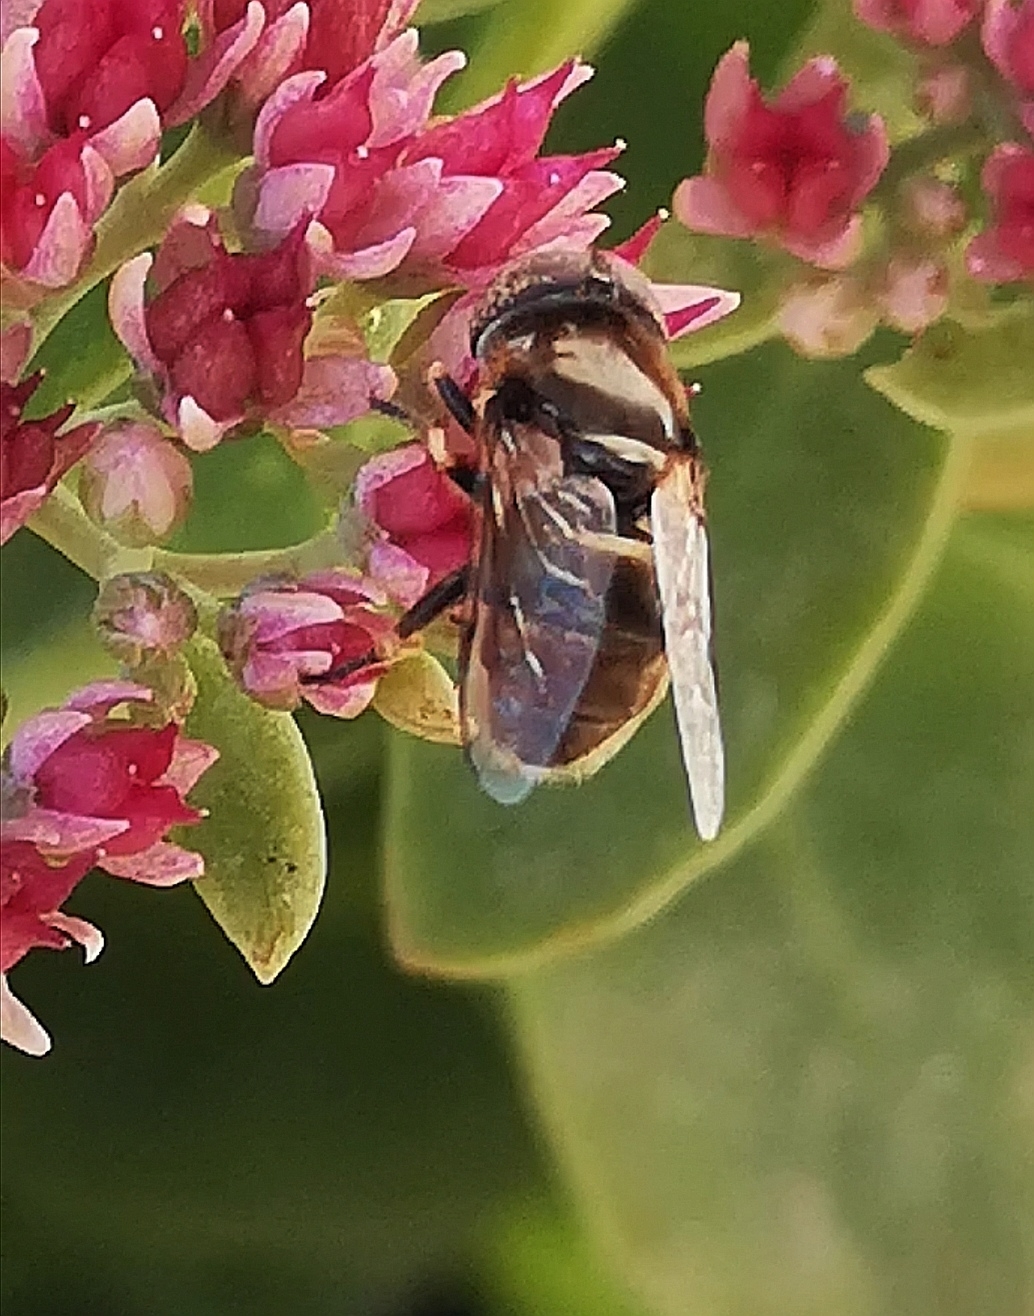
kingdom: Animalia
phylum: Arthropoda
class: Insecta
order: Diptera
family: Syrphidae
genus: Eristalinus
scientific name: Eristalinus aeneus
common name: Syrphid fly
